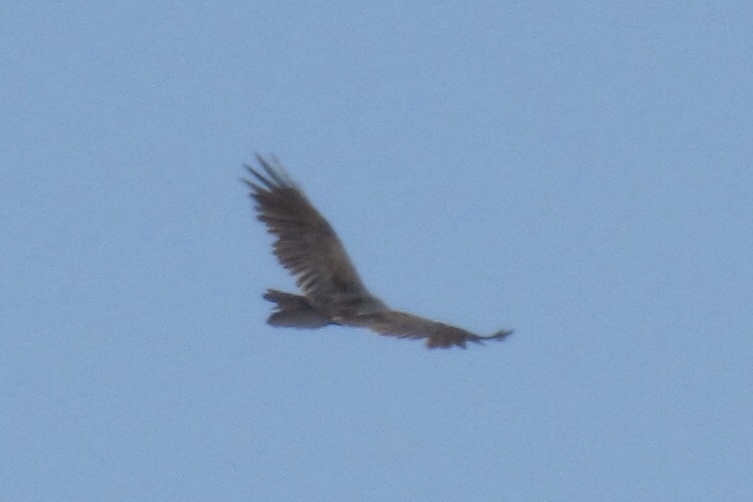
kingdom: Animalia
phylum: Chordata
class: Aves
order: Accipitriformes
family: Cathartidae
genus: Cathartes
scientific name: Cathartes aura
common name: Turkey vulture
